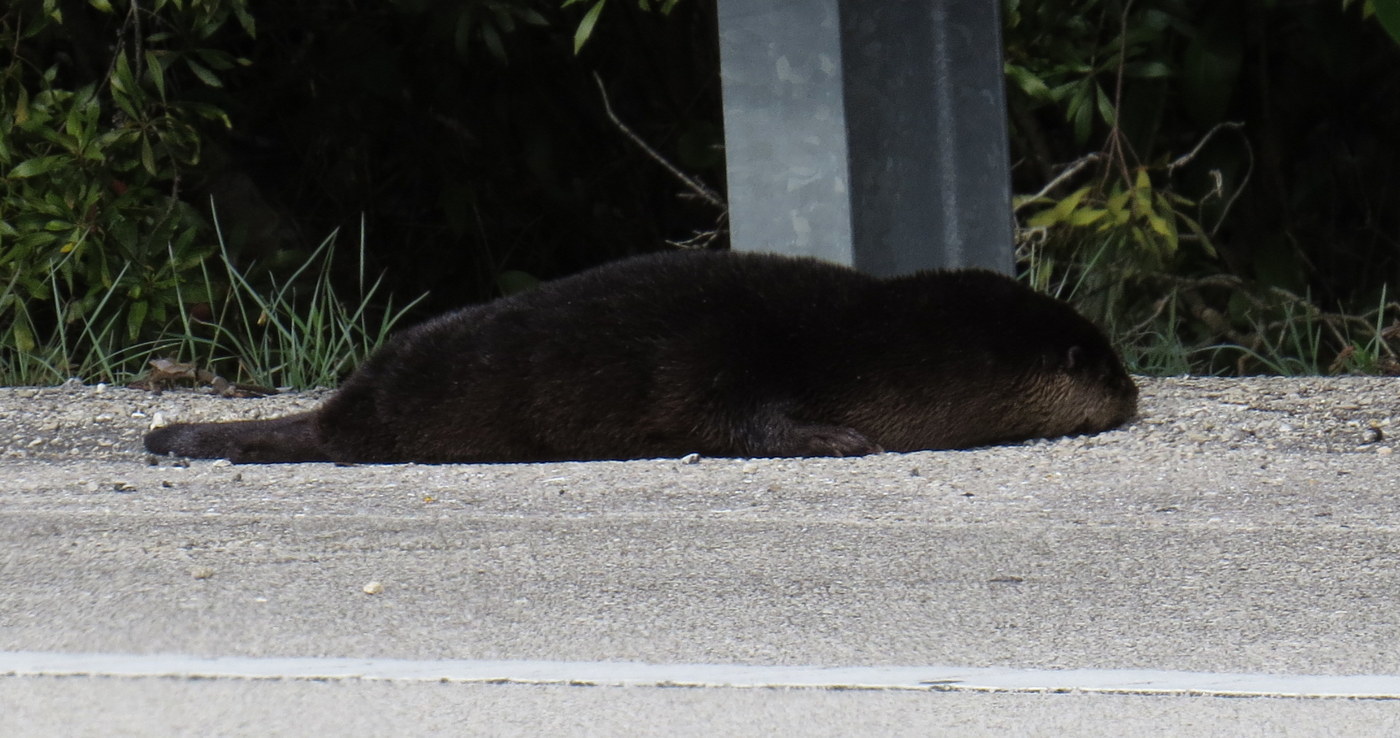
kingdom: Animalia
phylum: Chordata
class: Mammalia
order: Carnivora
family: Mustelidae
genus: Lontra
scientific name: Lontra canadensis
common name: North american river otter
